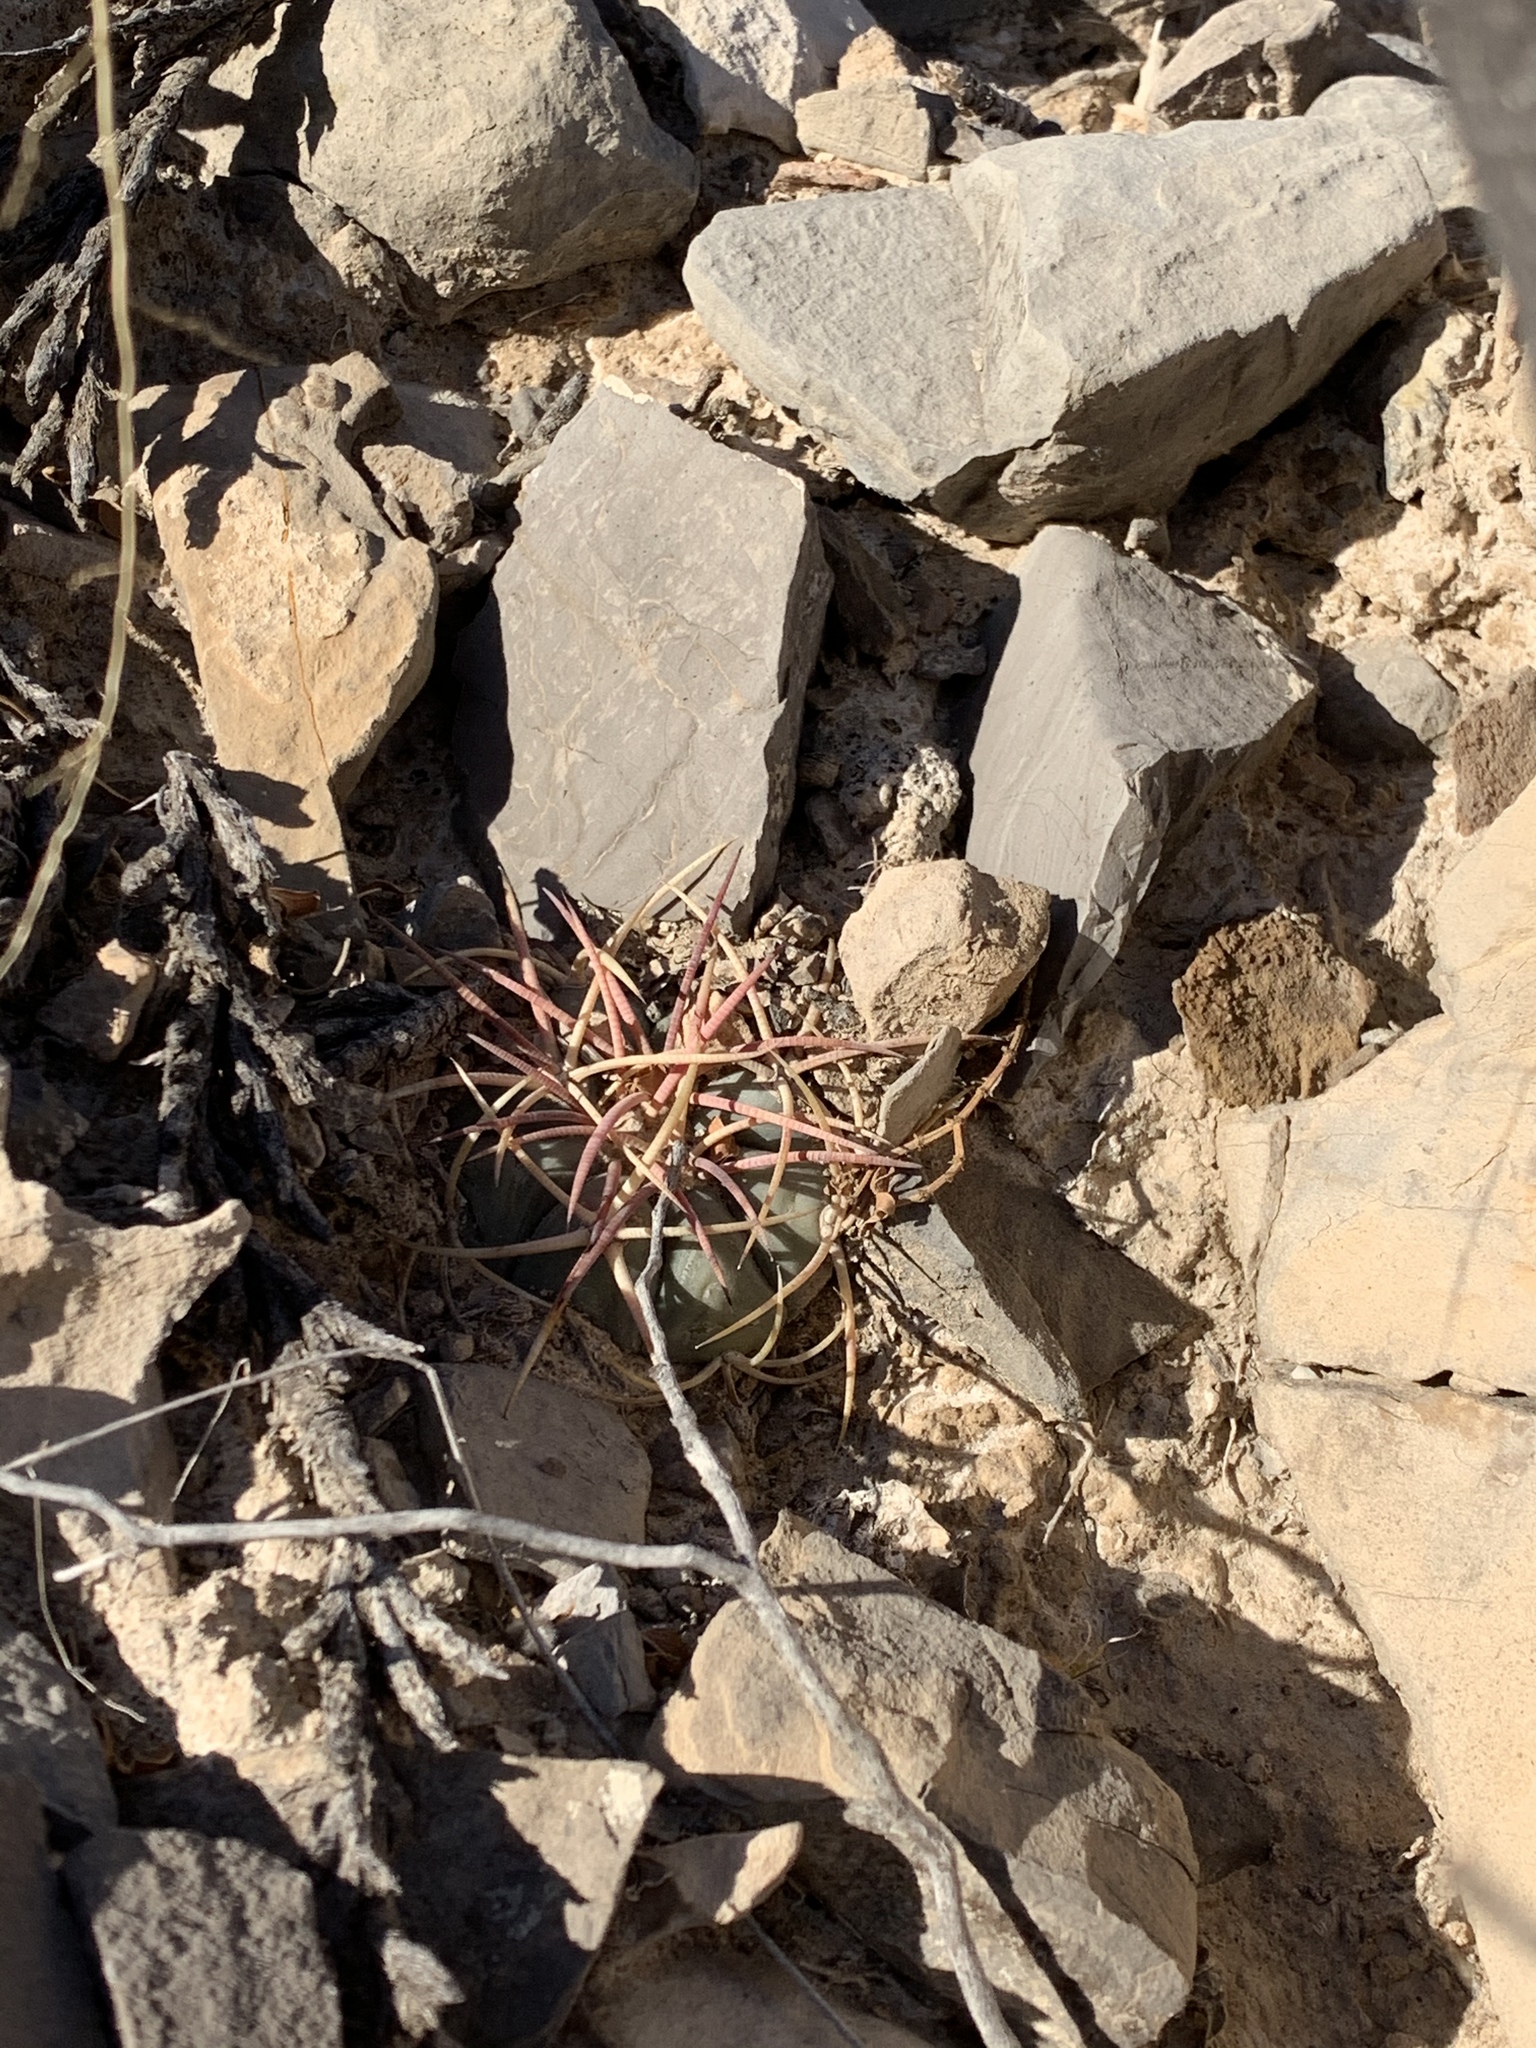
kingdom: Plantae
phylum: Tracheophyta
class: Magnoliopsida
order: Caryophyllales
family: Cactaceae
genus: Echinocactus
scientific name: Echinocactus horizonthalonius
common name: Devilshead
